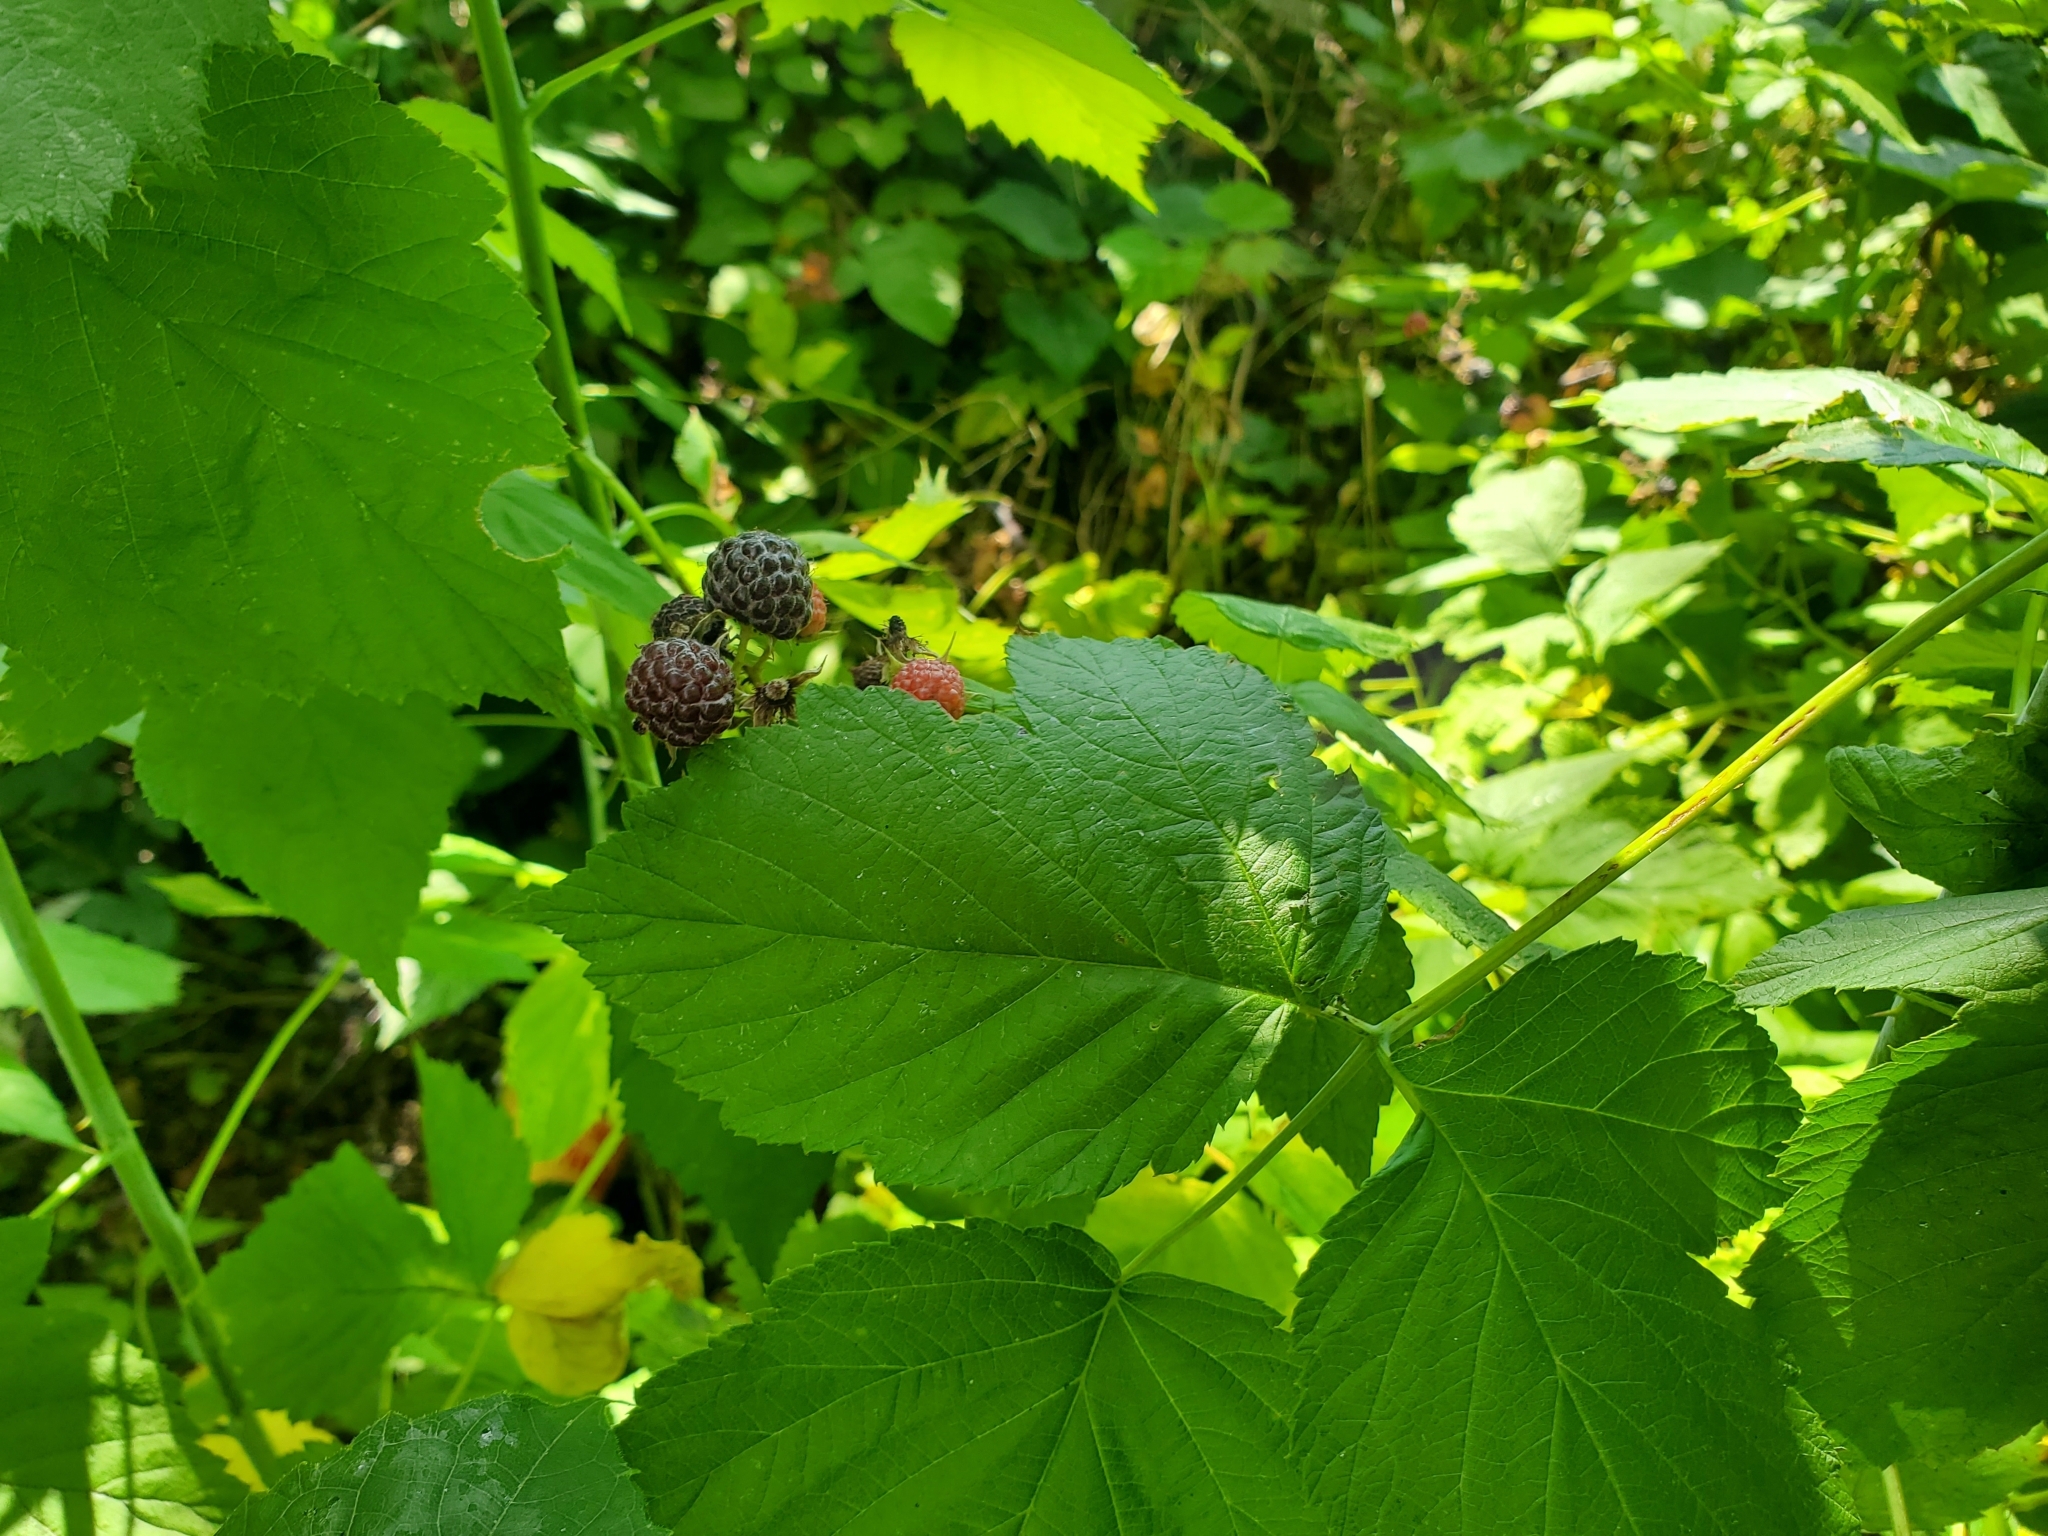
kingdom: Plantae
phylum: Tracheophyta
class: Magnoliopsida
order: Rosales
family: Rosaceae
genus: Rubus
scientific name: Rubus occidentalis
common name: Black raspberry
